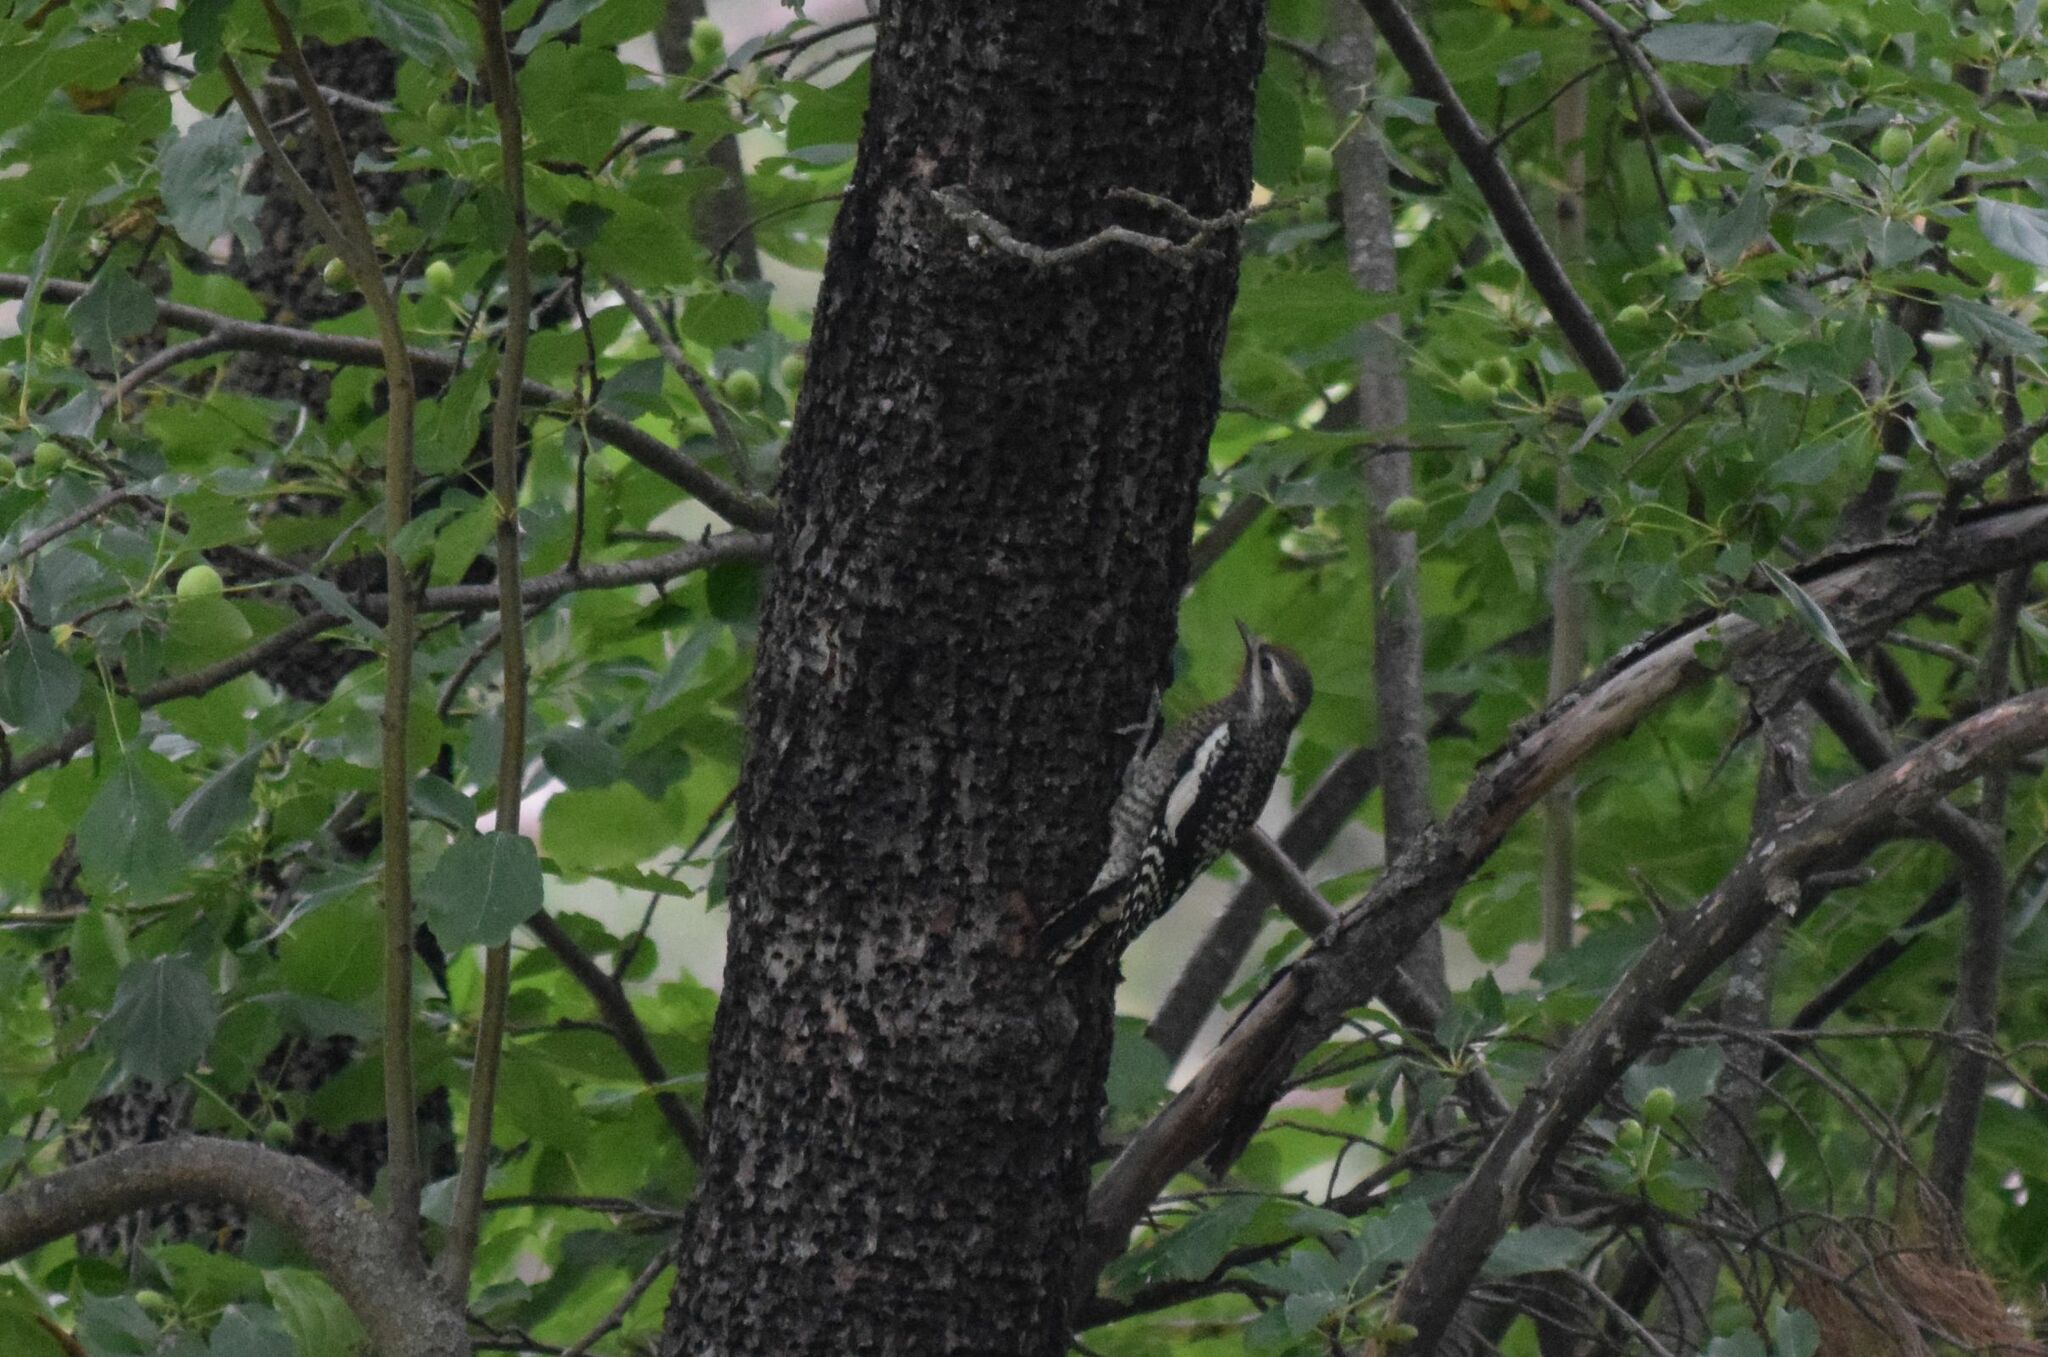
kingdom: Animalia
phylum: Chordata
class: Aves
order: Piciformes
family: Picidae
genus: Sphyrapicus
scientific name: Sphyrapicus varius
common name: Yellow-bellied sapsucker
